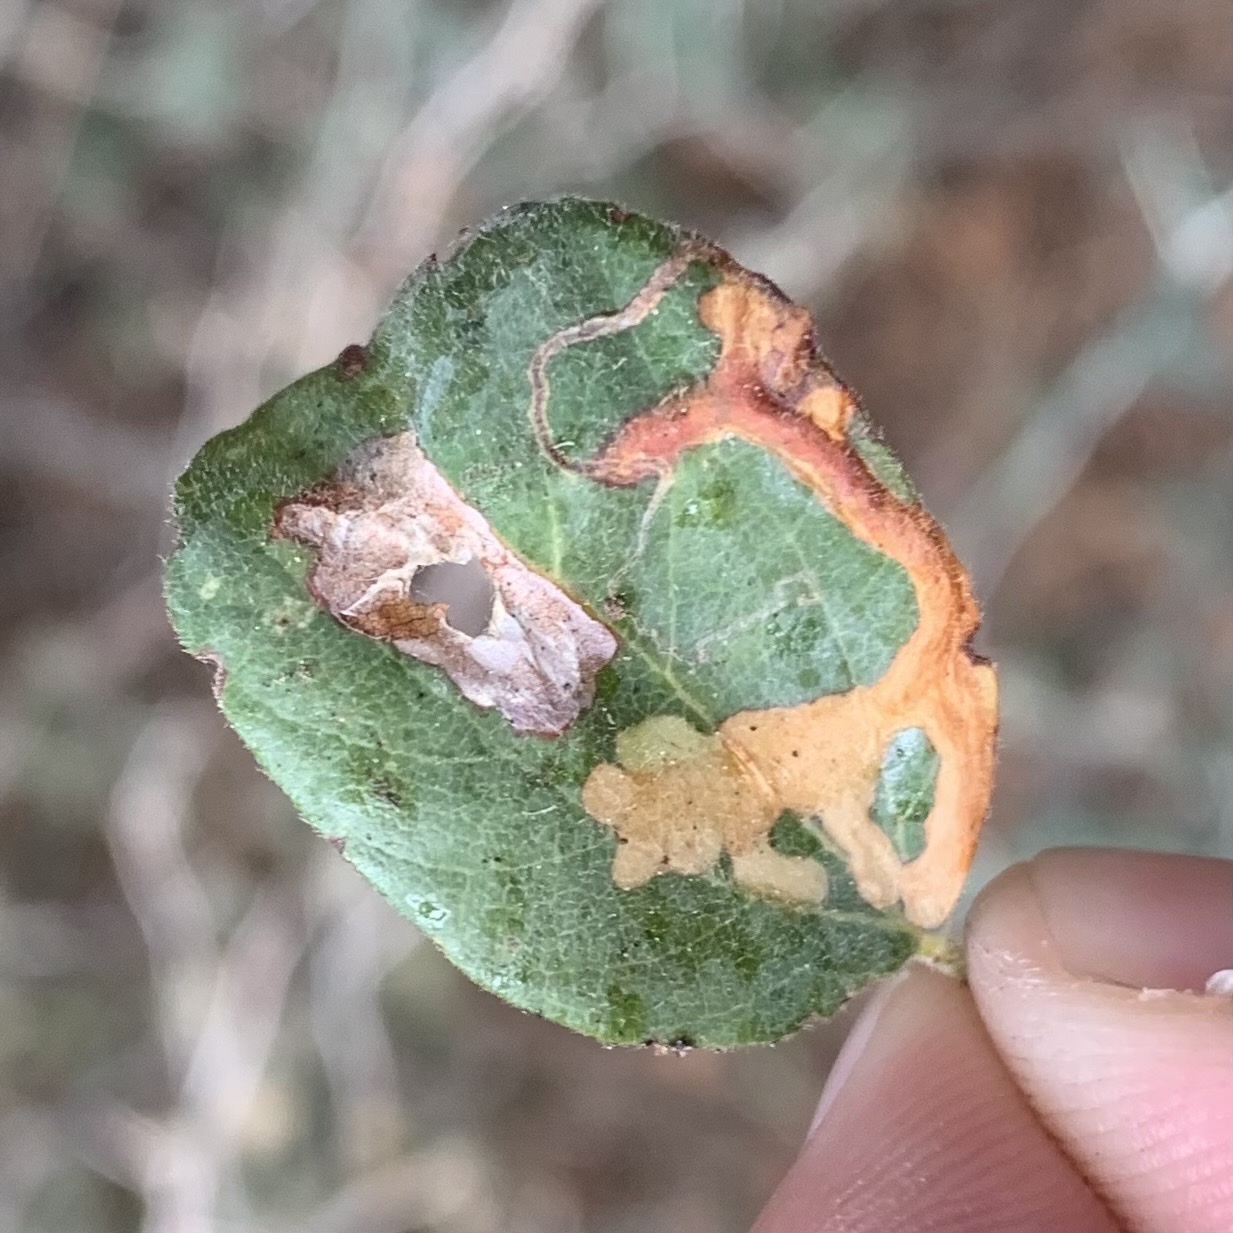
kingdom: Animalia
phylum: Arthropoda
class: Insecta
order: Lepidoptera
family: Gelechiidae
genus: Xenolechia
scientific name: Xenolechia ceanothiella
